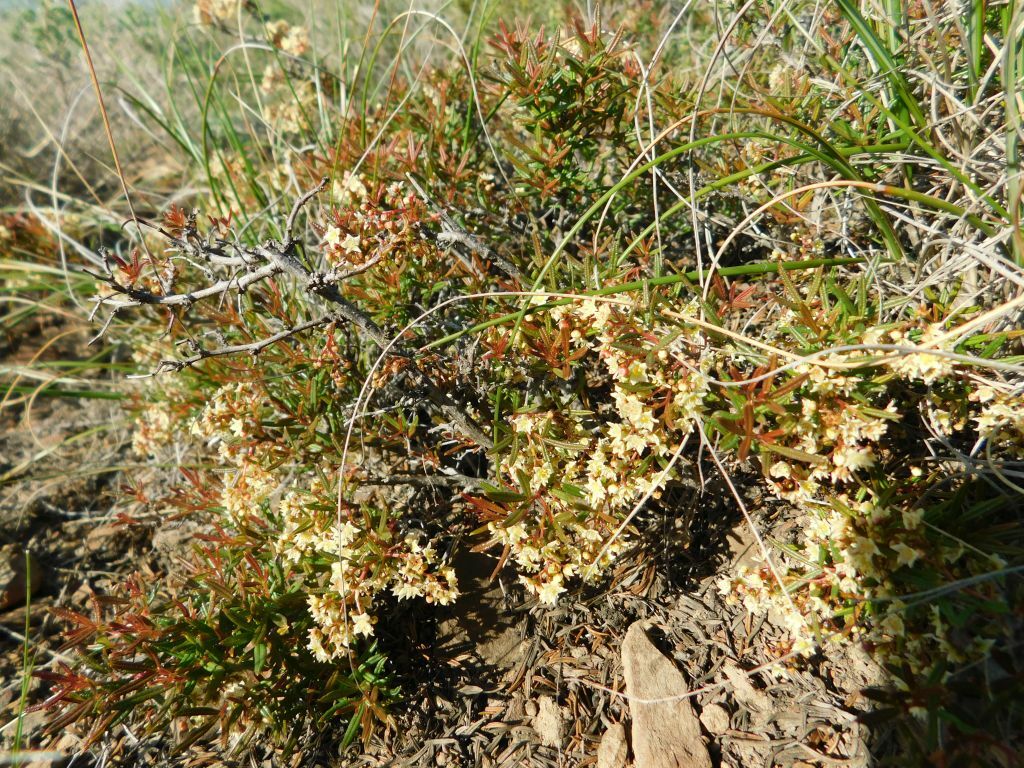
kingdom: Plantae
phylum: Tracheophyta
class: Magnoliopsida
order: Sapindales
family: Anacardiaceae
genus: Searsia
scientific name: Searsia rosmarinifolia
